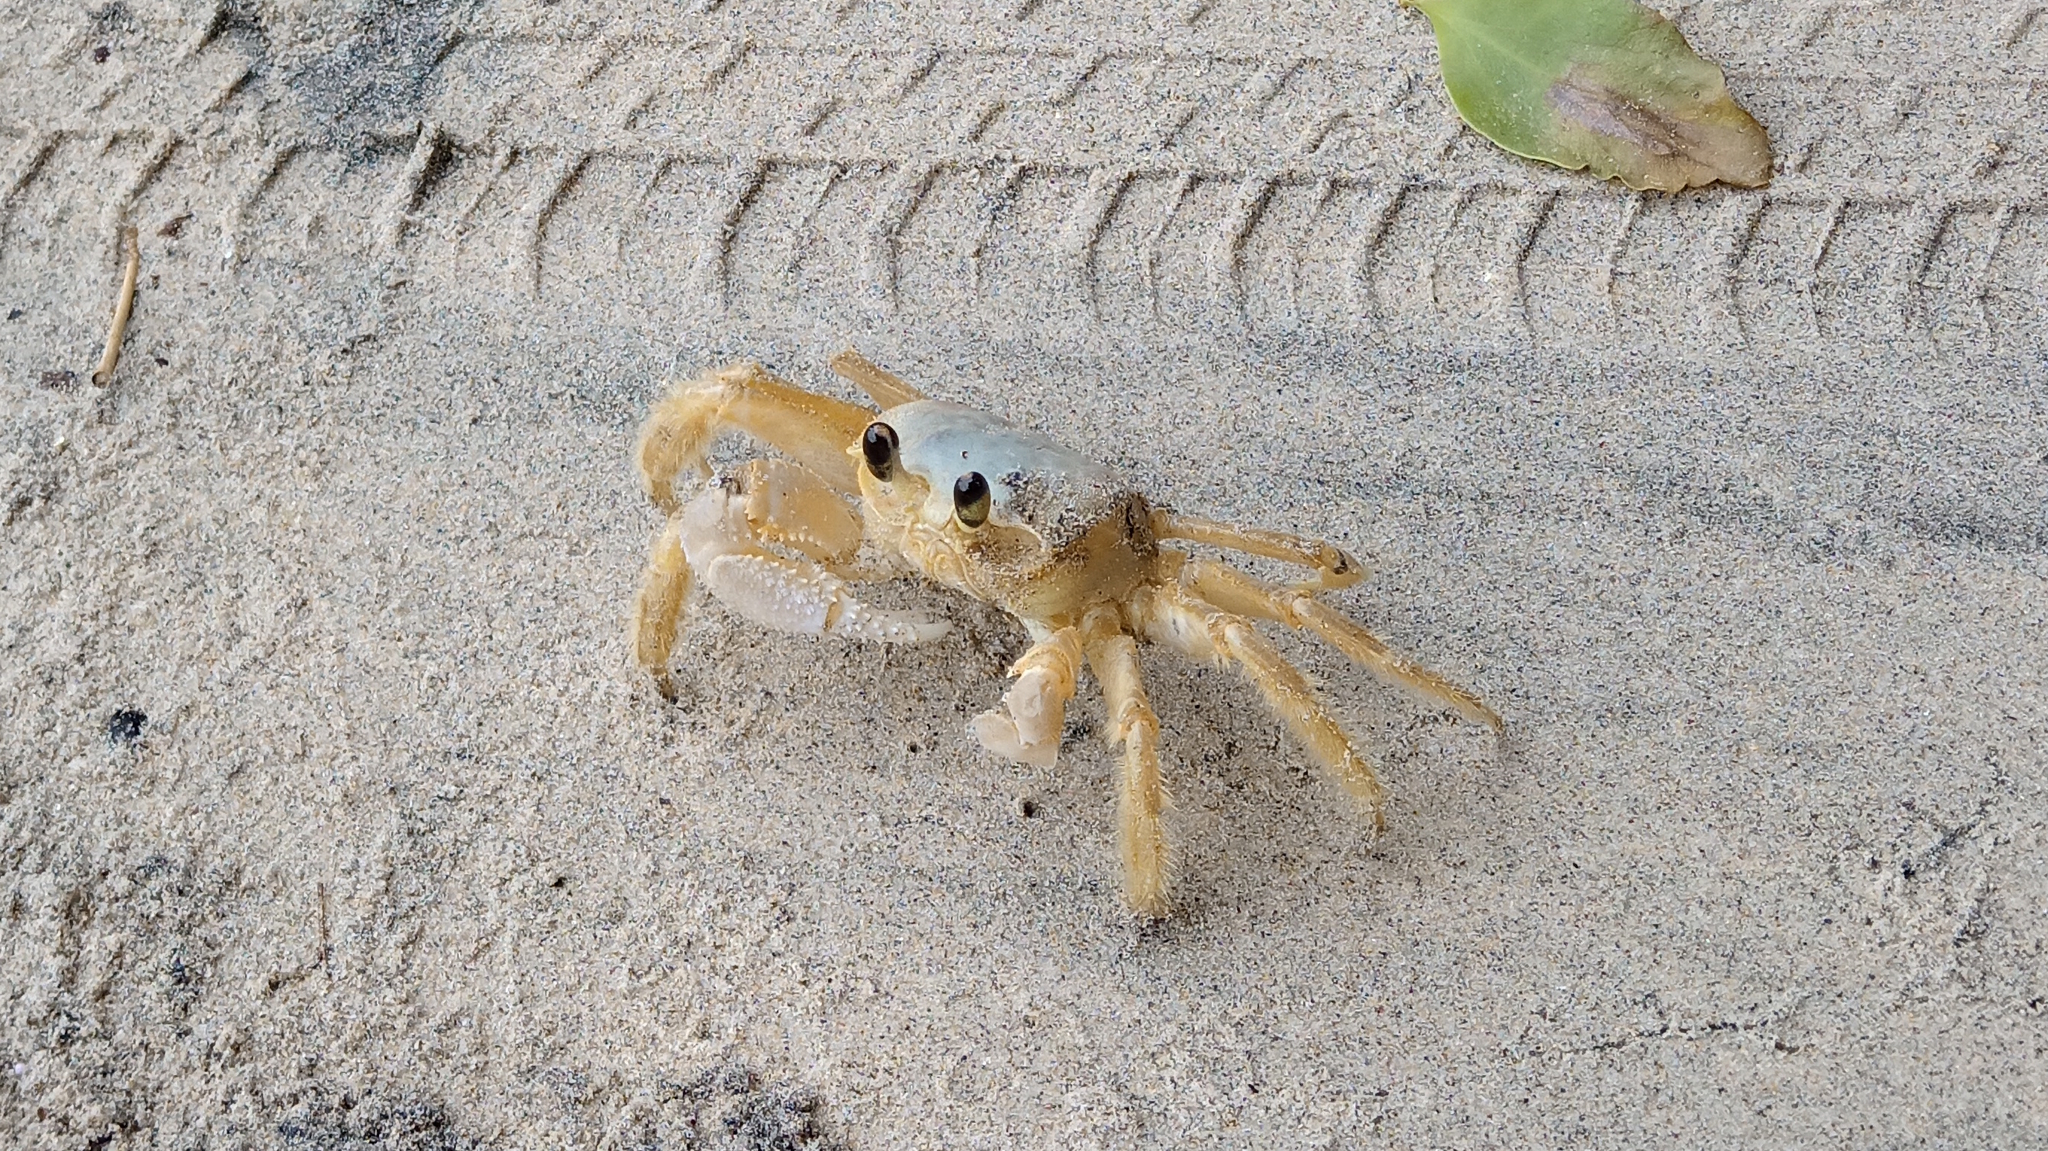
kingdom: Animalia
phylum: Arthropoda
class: Malacostraca
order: Decapoda
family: Ocypodidae
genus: Ocypode
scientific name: Ocypode quadrata
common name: Ghost crab
